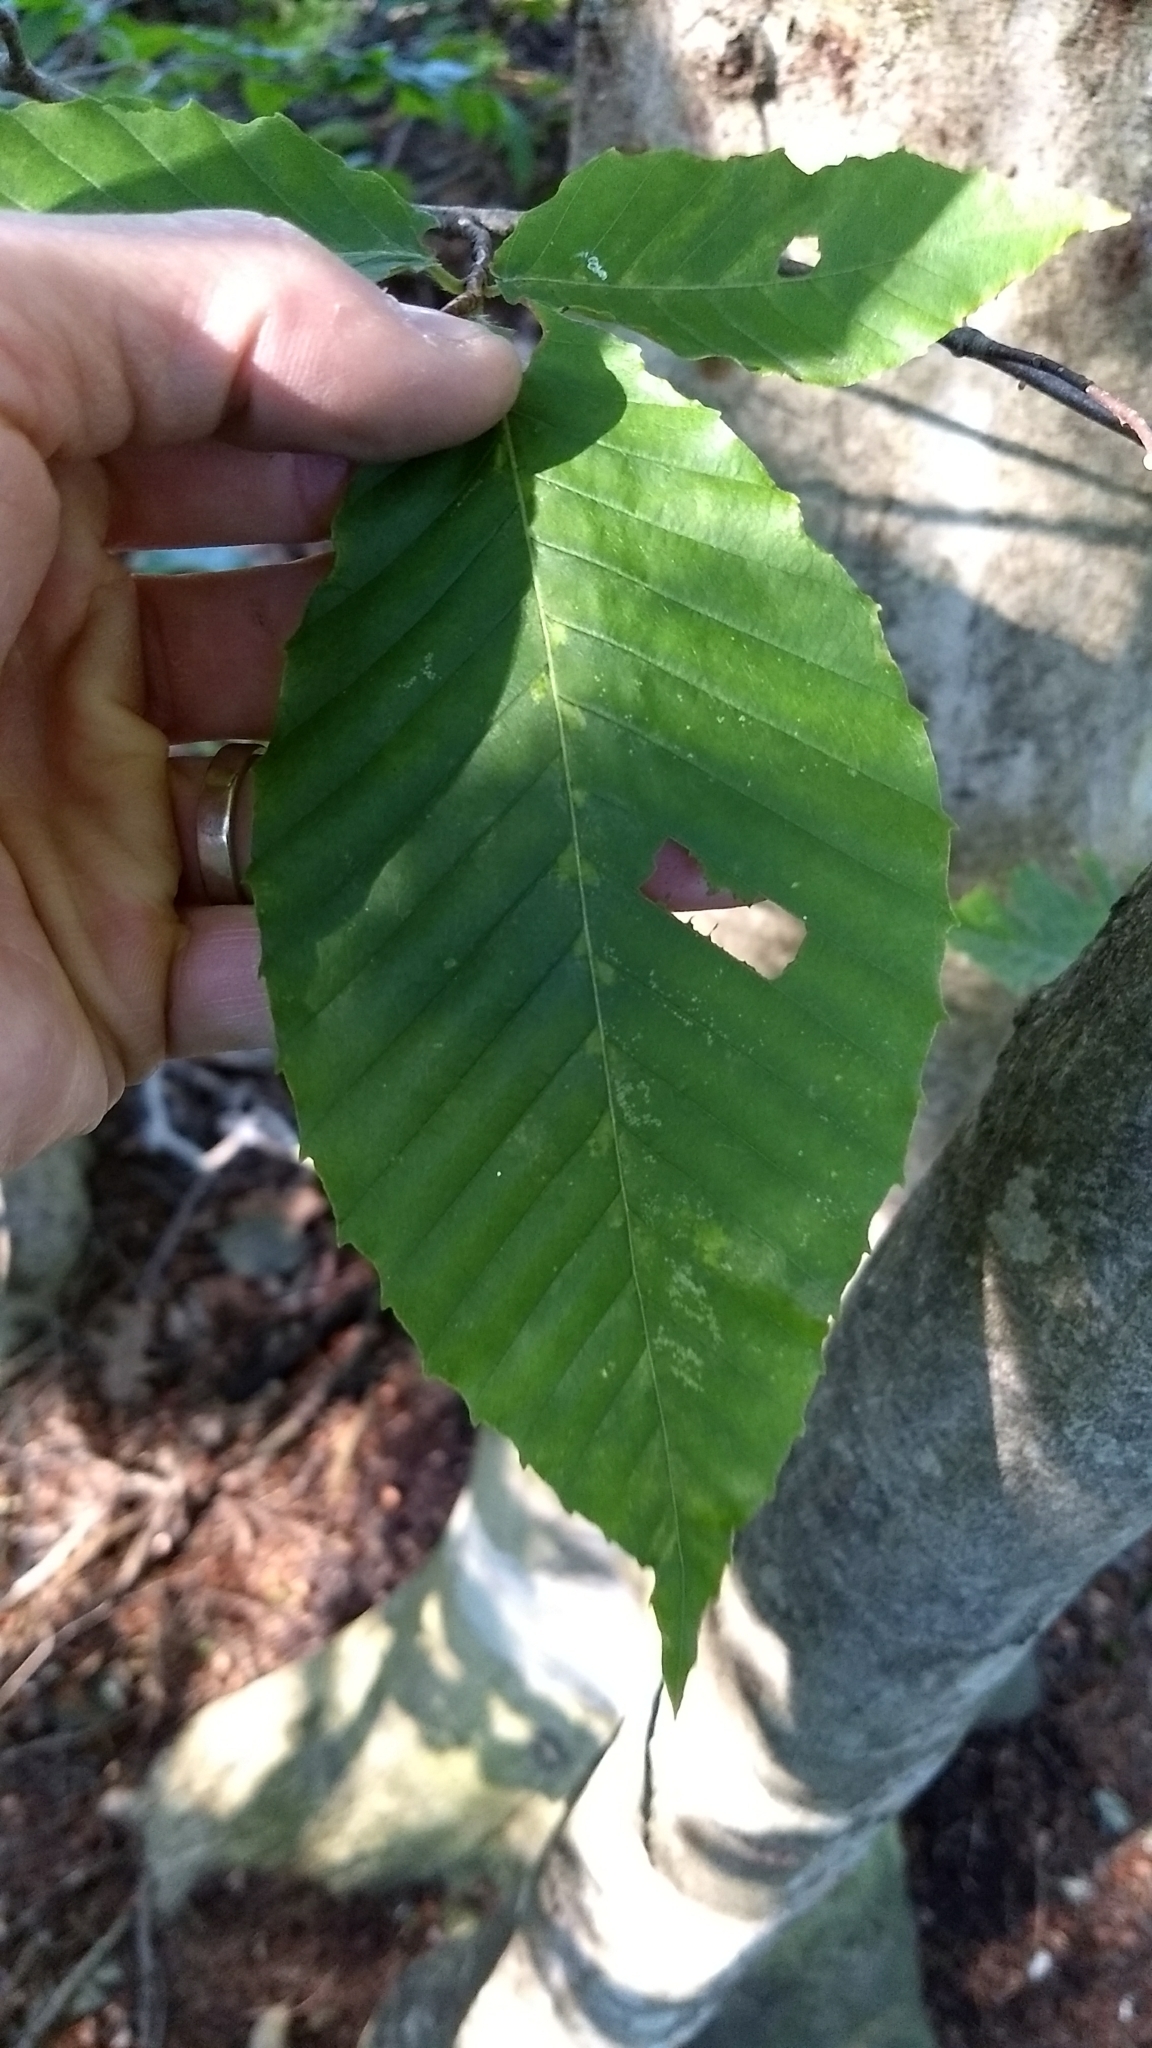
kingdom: Plantae
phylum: Tracheophyta
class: Magnoliopsida
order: Fagales
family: Fagaceae
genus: Fagus
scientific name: Fagus grandifolia
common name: American beech
